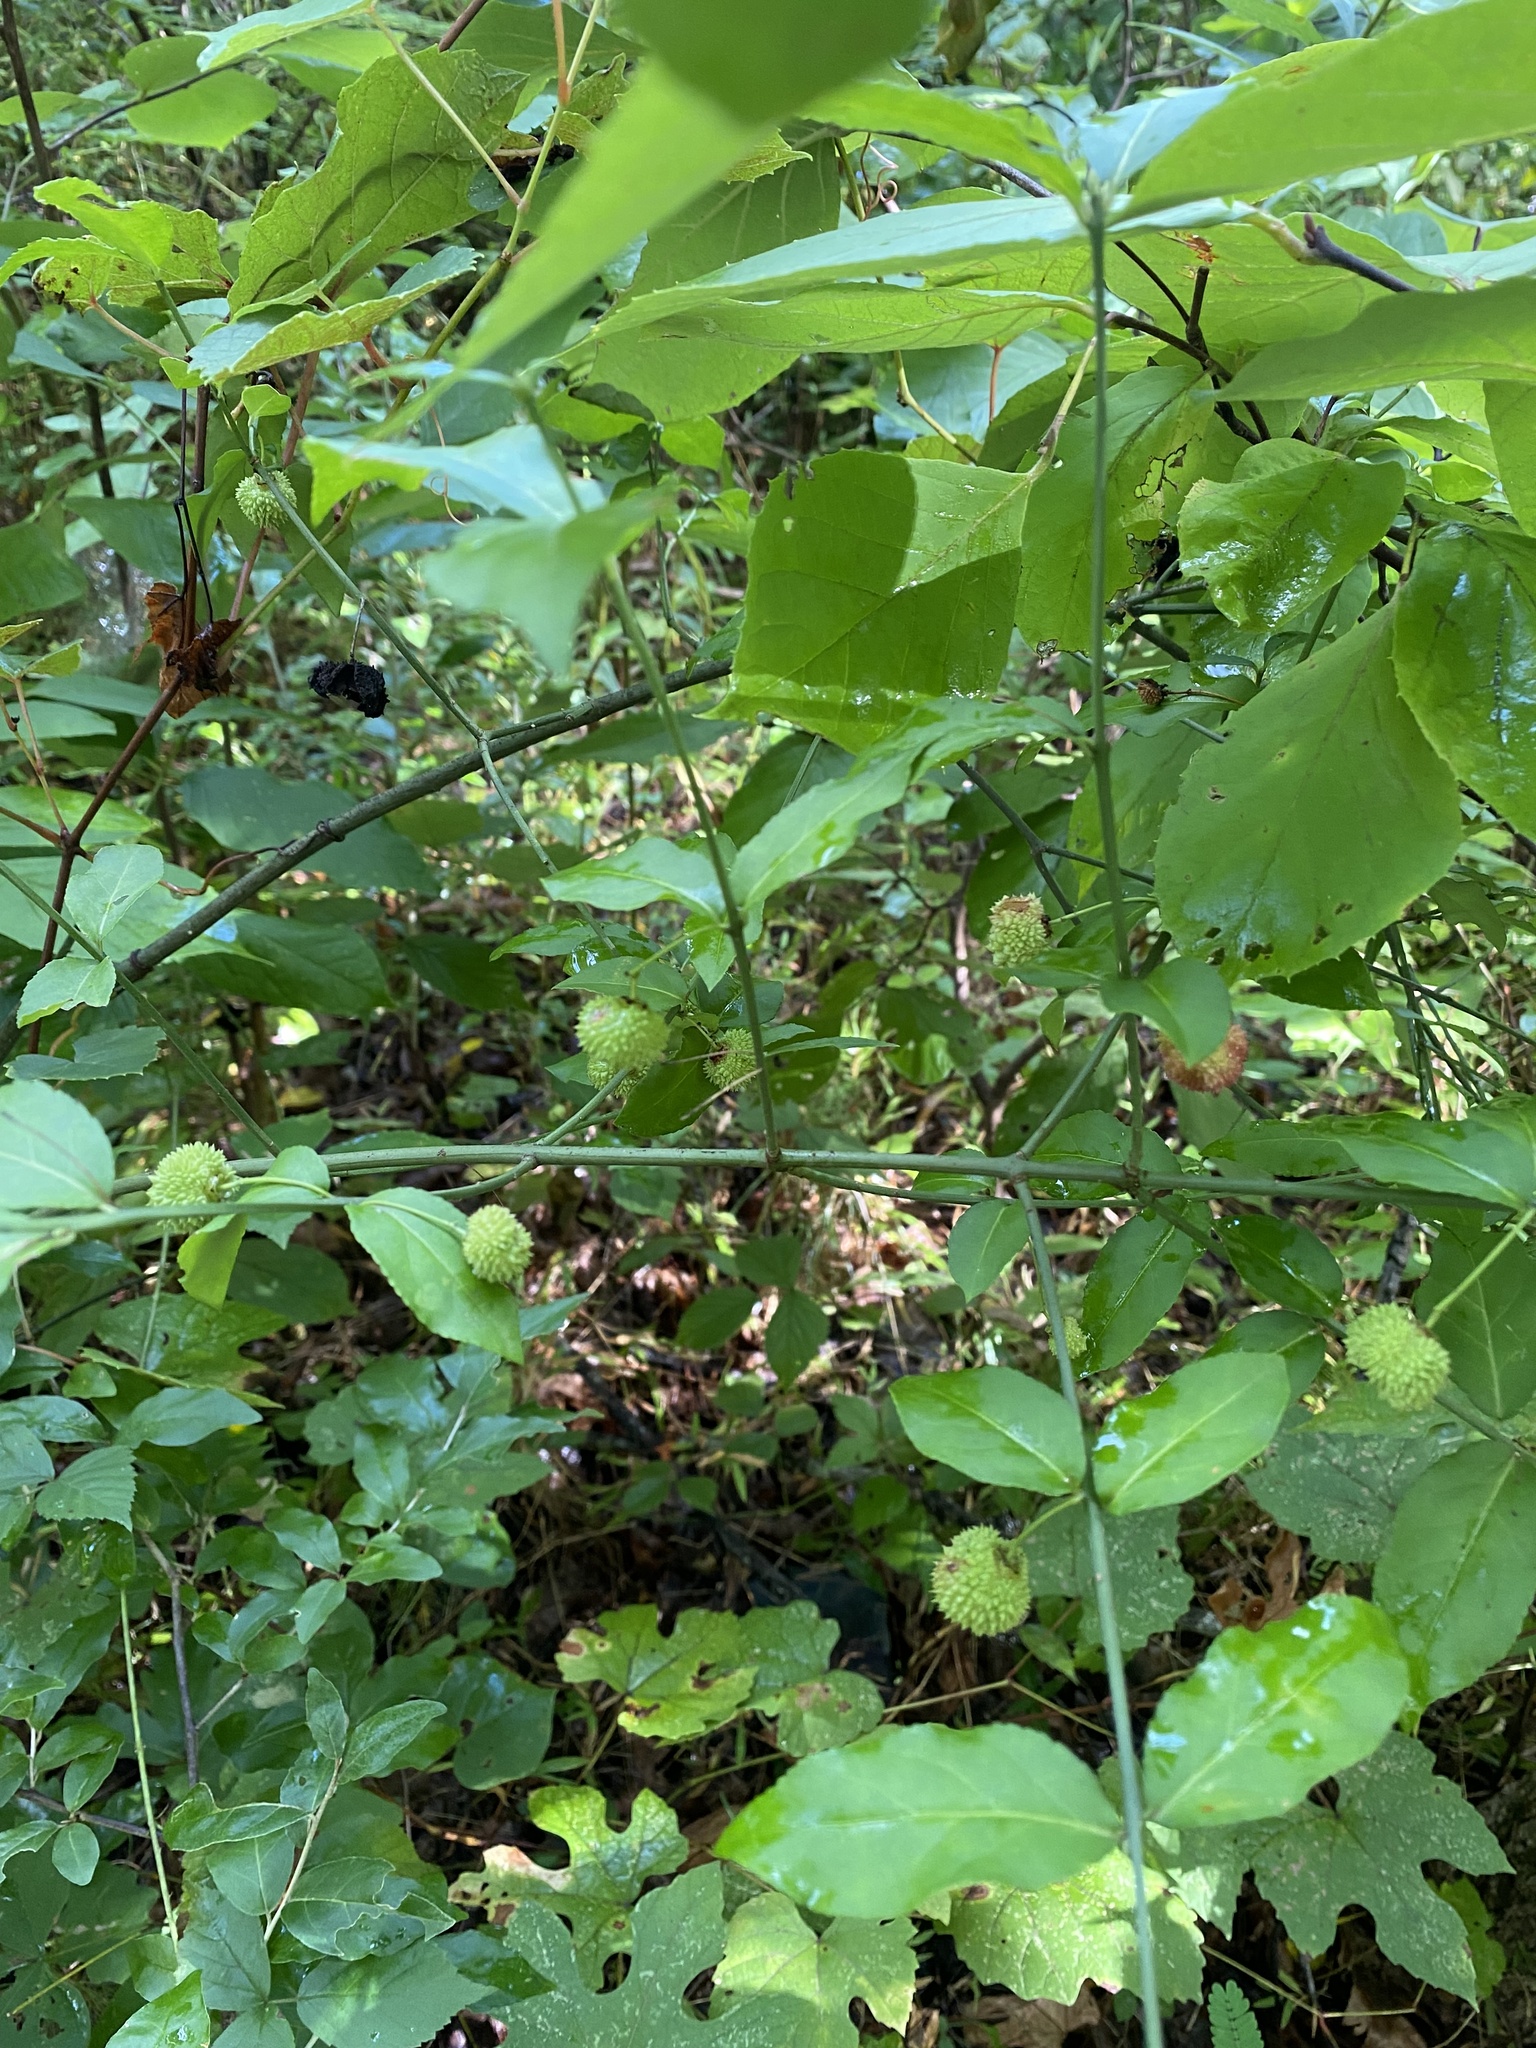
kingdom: Plantae
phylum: Tracheophyta
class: Magnoliopsida
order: Celastrales
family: Celastraceae
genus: Euonymus
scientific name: Euonymus americanus
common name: Bursting-heart
